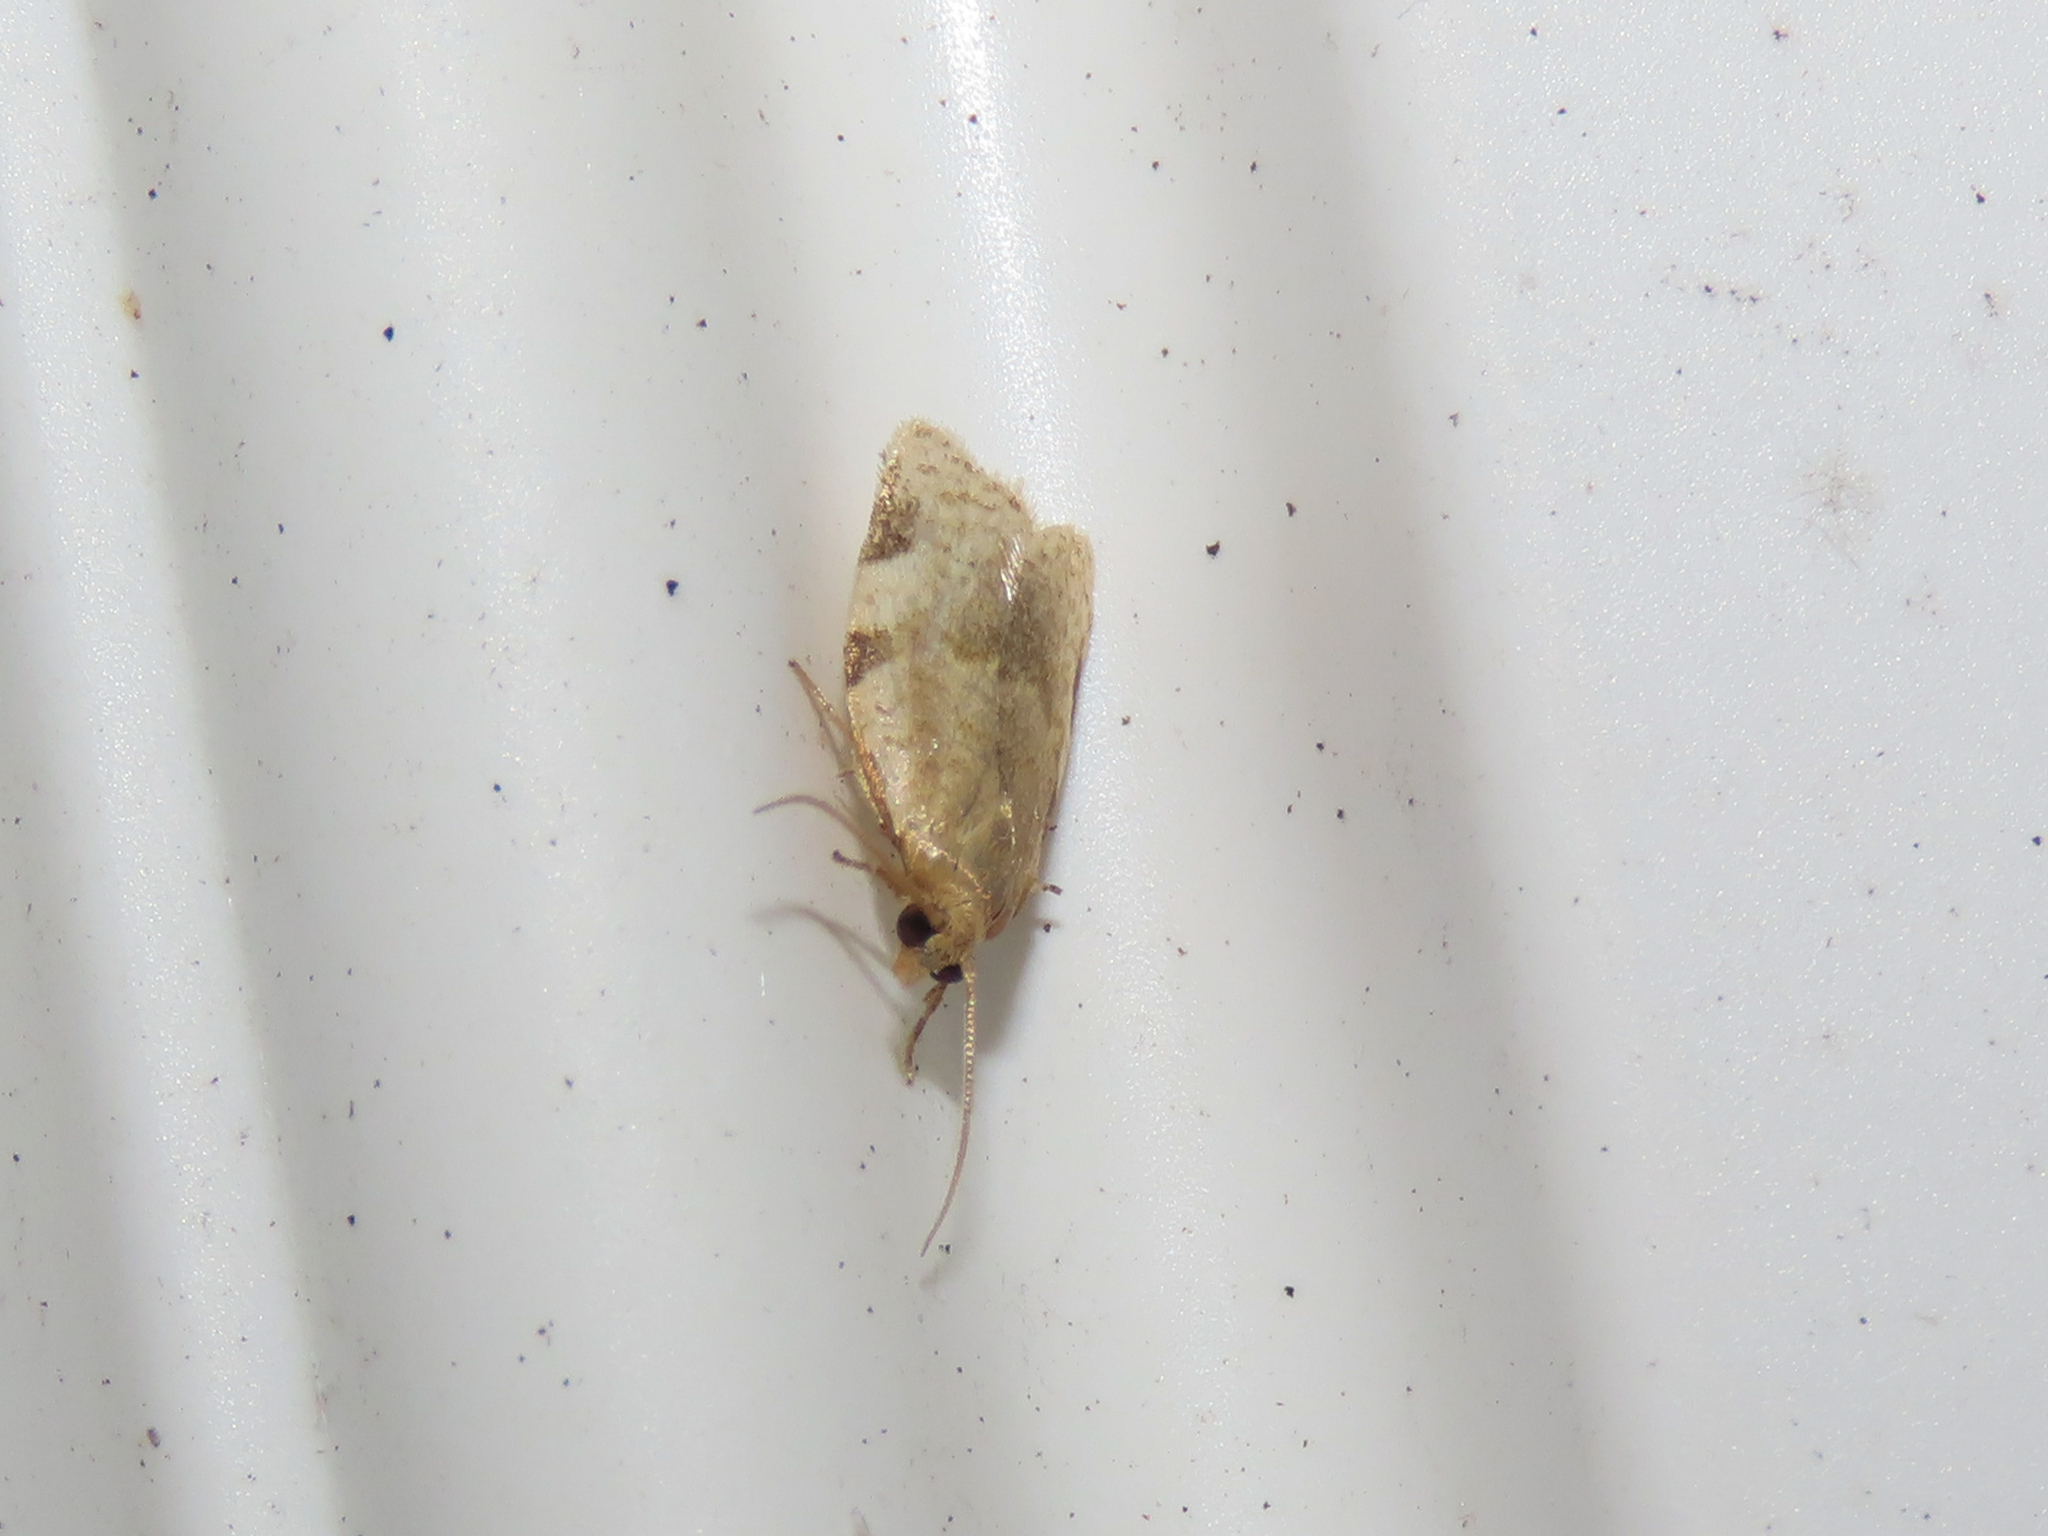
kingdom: Animalia
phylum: Arthropoda
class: Insecta
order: Lepidoptera
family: Tortricidae
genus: Clepsis
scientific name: Clepsis virescana
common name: Greenish apple moth
